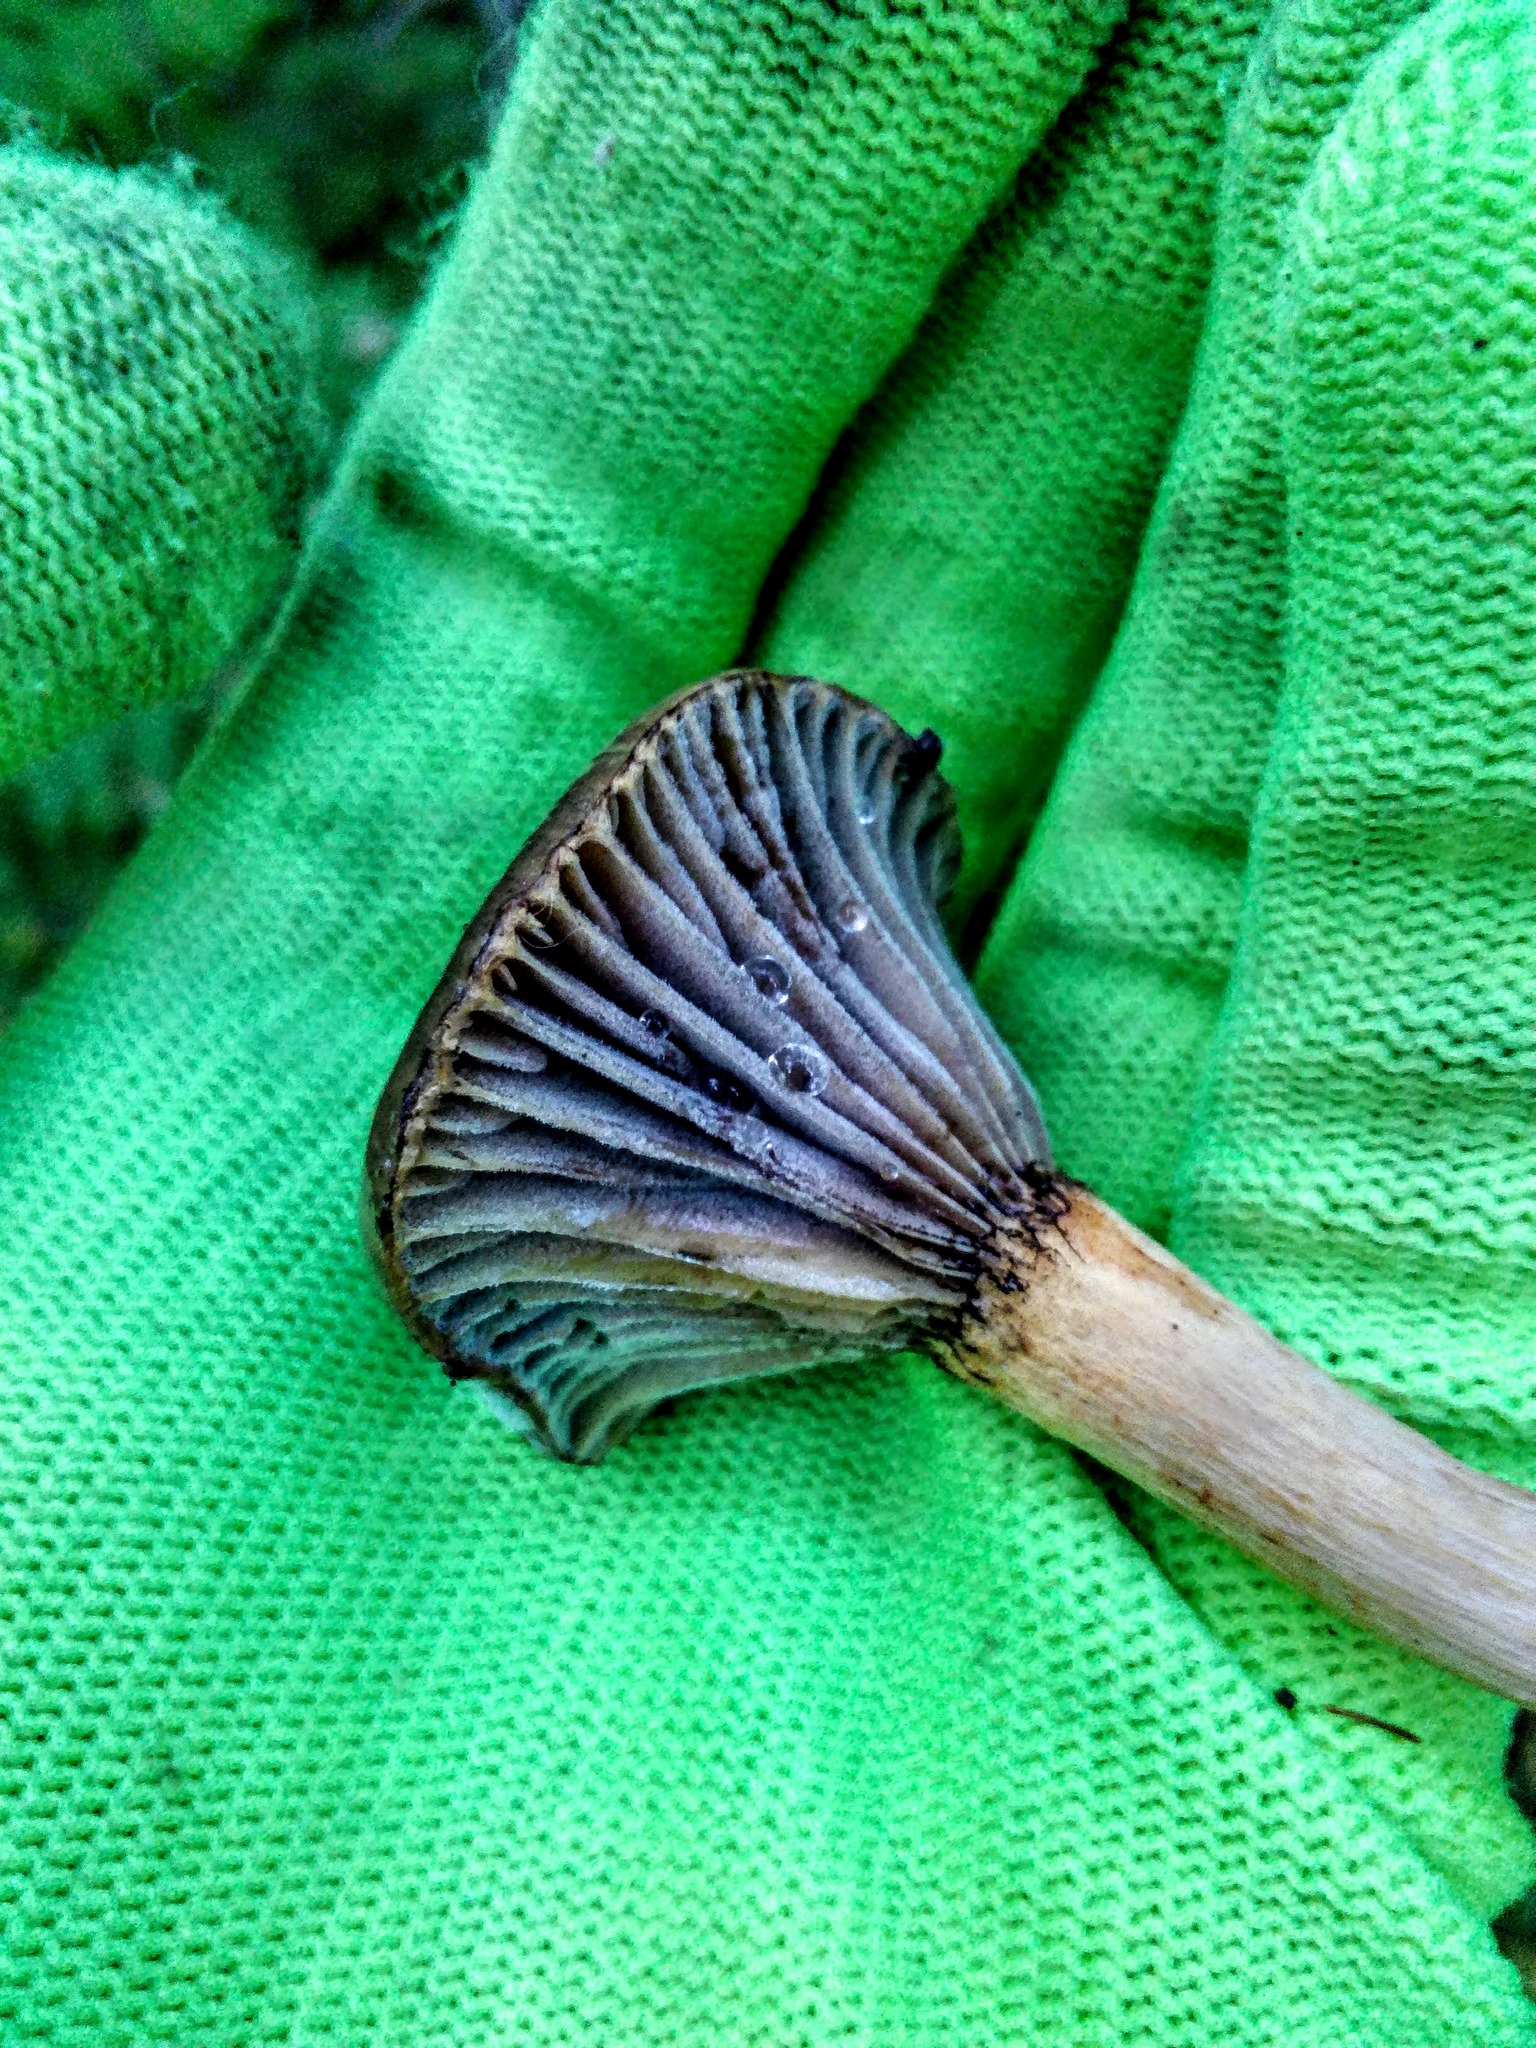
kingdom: Fungi
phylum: Basidiomycota
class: Agaricomycetes
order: Boletales
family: Gomphidiaceae
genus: Chroogomphus
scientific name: Chroogomphus rutilus
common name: Copper spike
